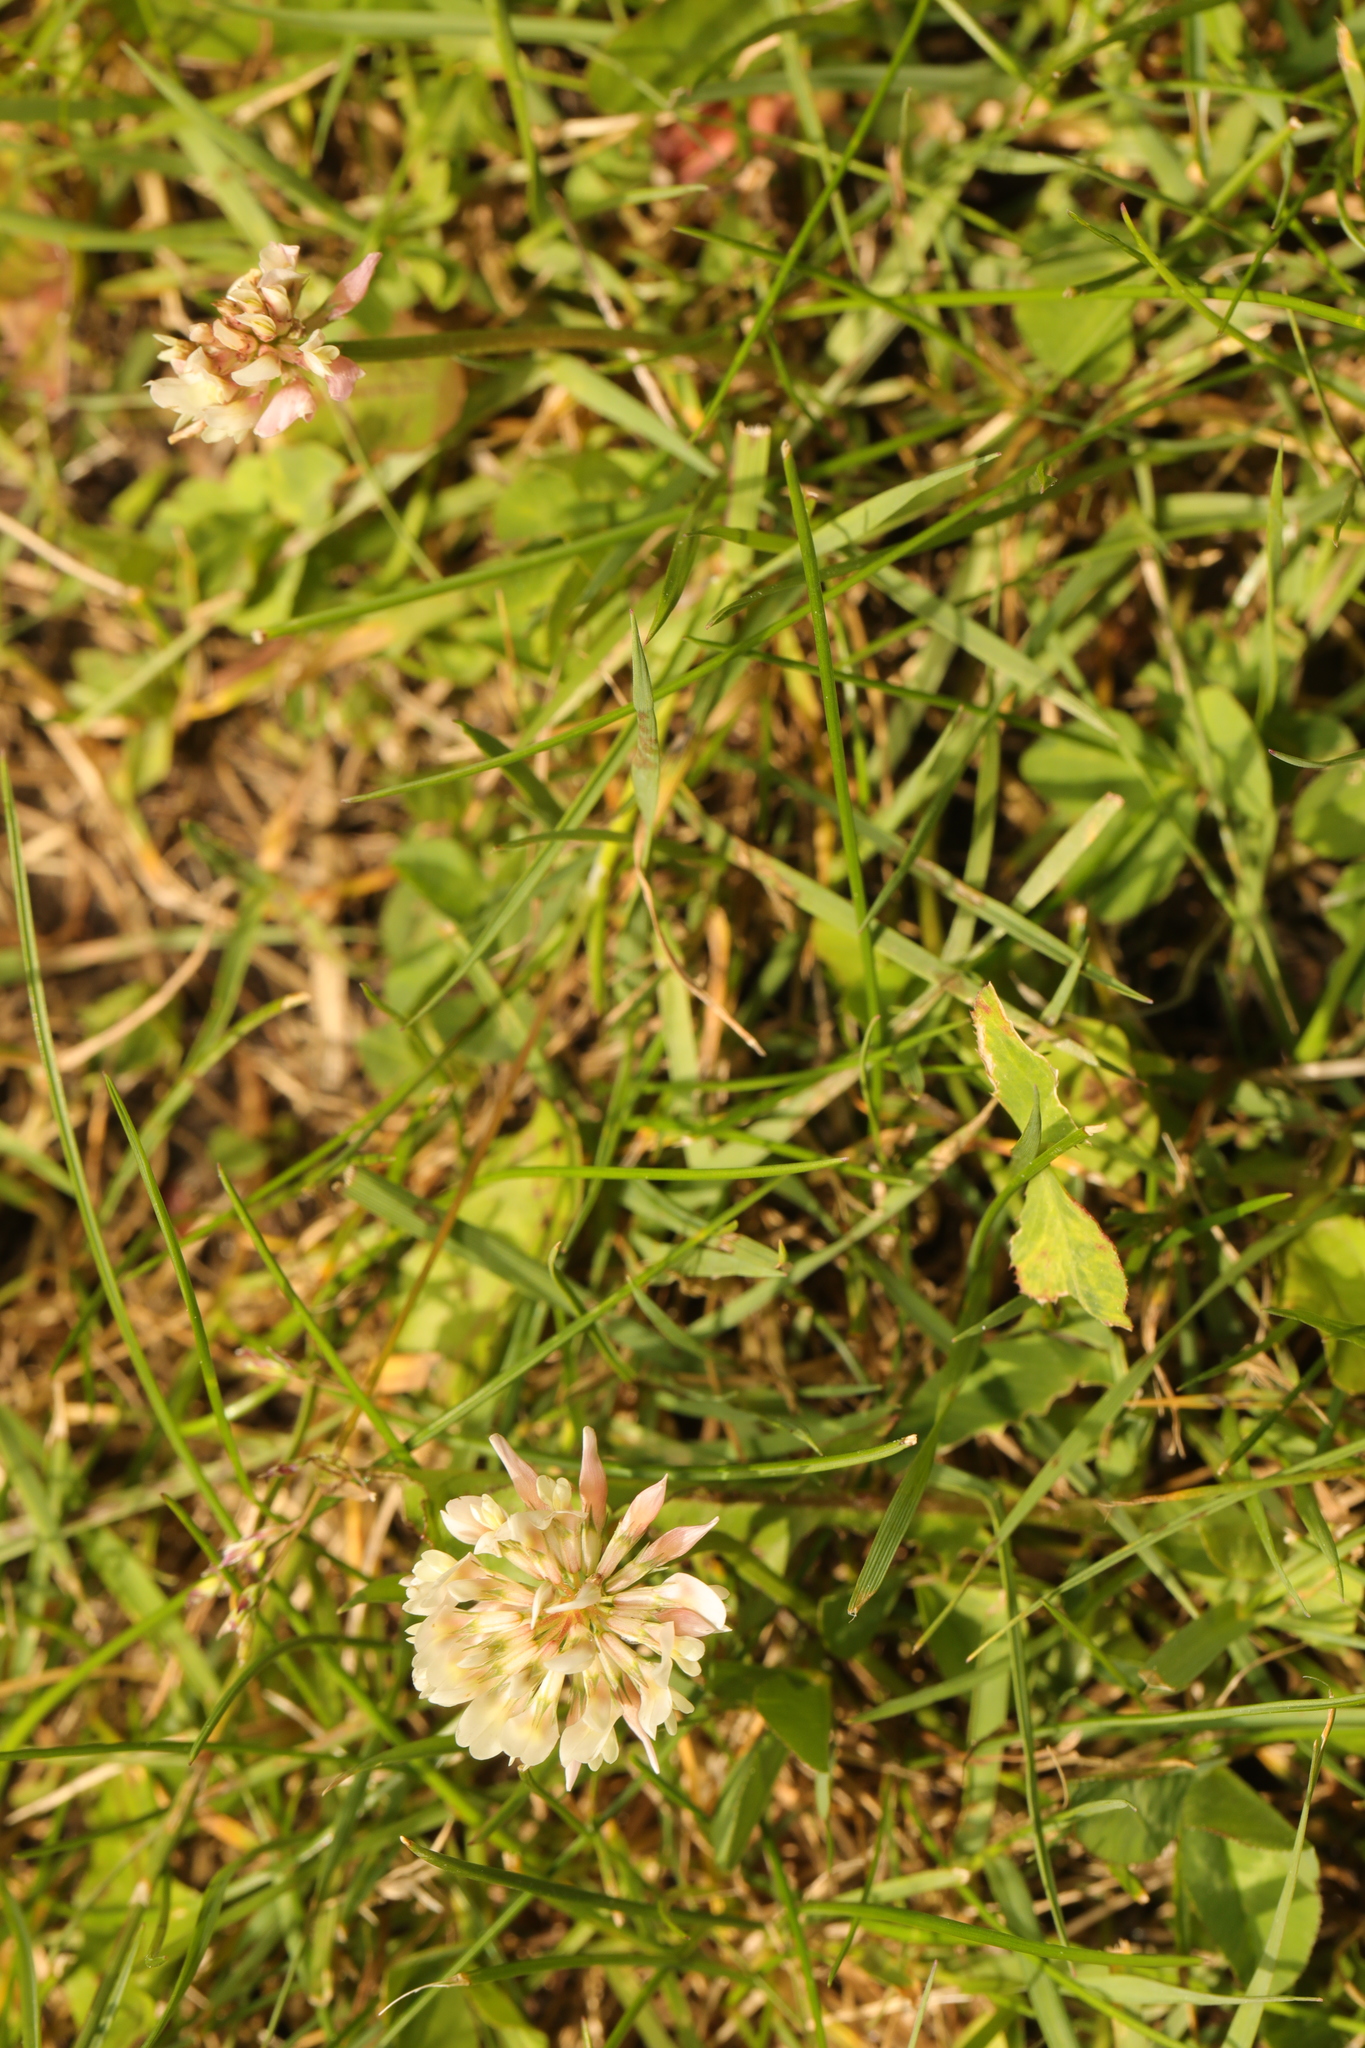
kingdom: Plantae
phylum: Tracheophyta
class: Magnoliopsida
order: Fabales
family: Fabaceae
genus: Trifolium
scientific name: Trifolium repens
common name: White clover
